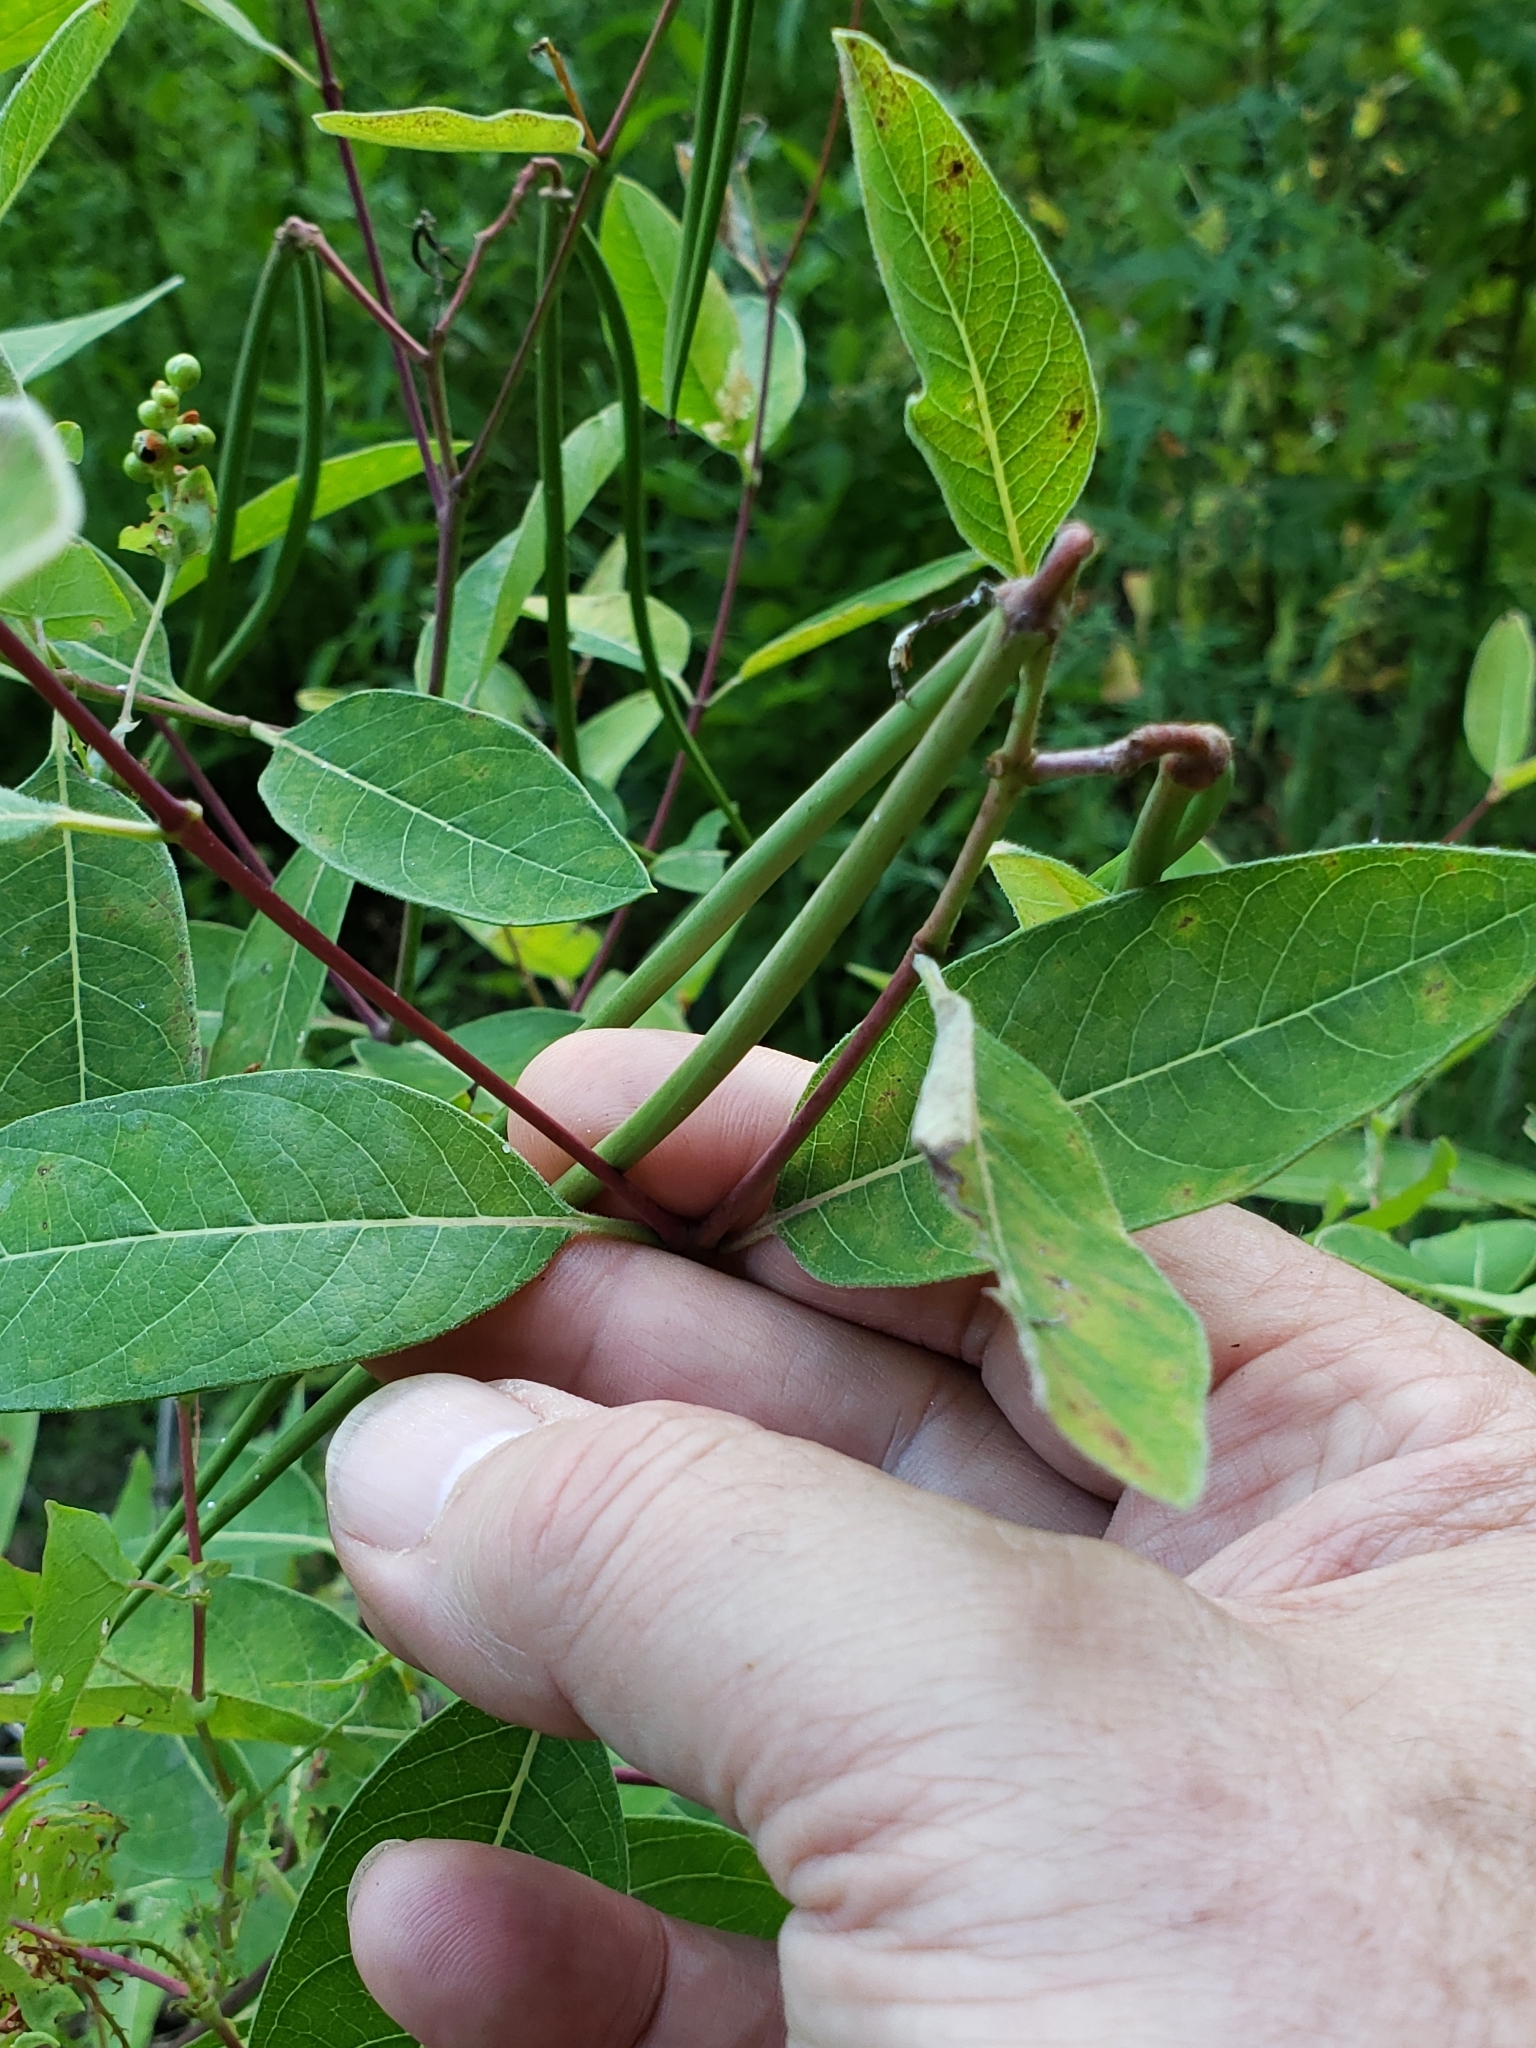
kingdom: Animalia
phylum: Arthropoda
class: Insecta
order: Lepidoptera
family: Crambidae
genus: Saucrobotys
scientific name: Saucrobotys futilalis
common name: Dogbane saucrobotys moth
